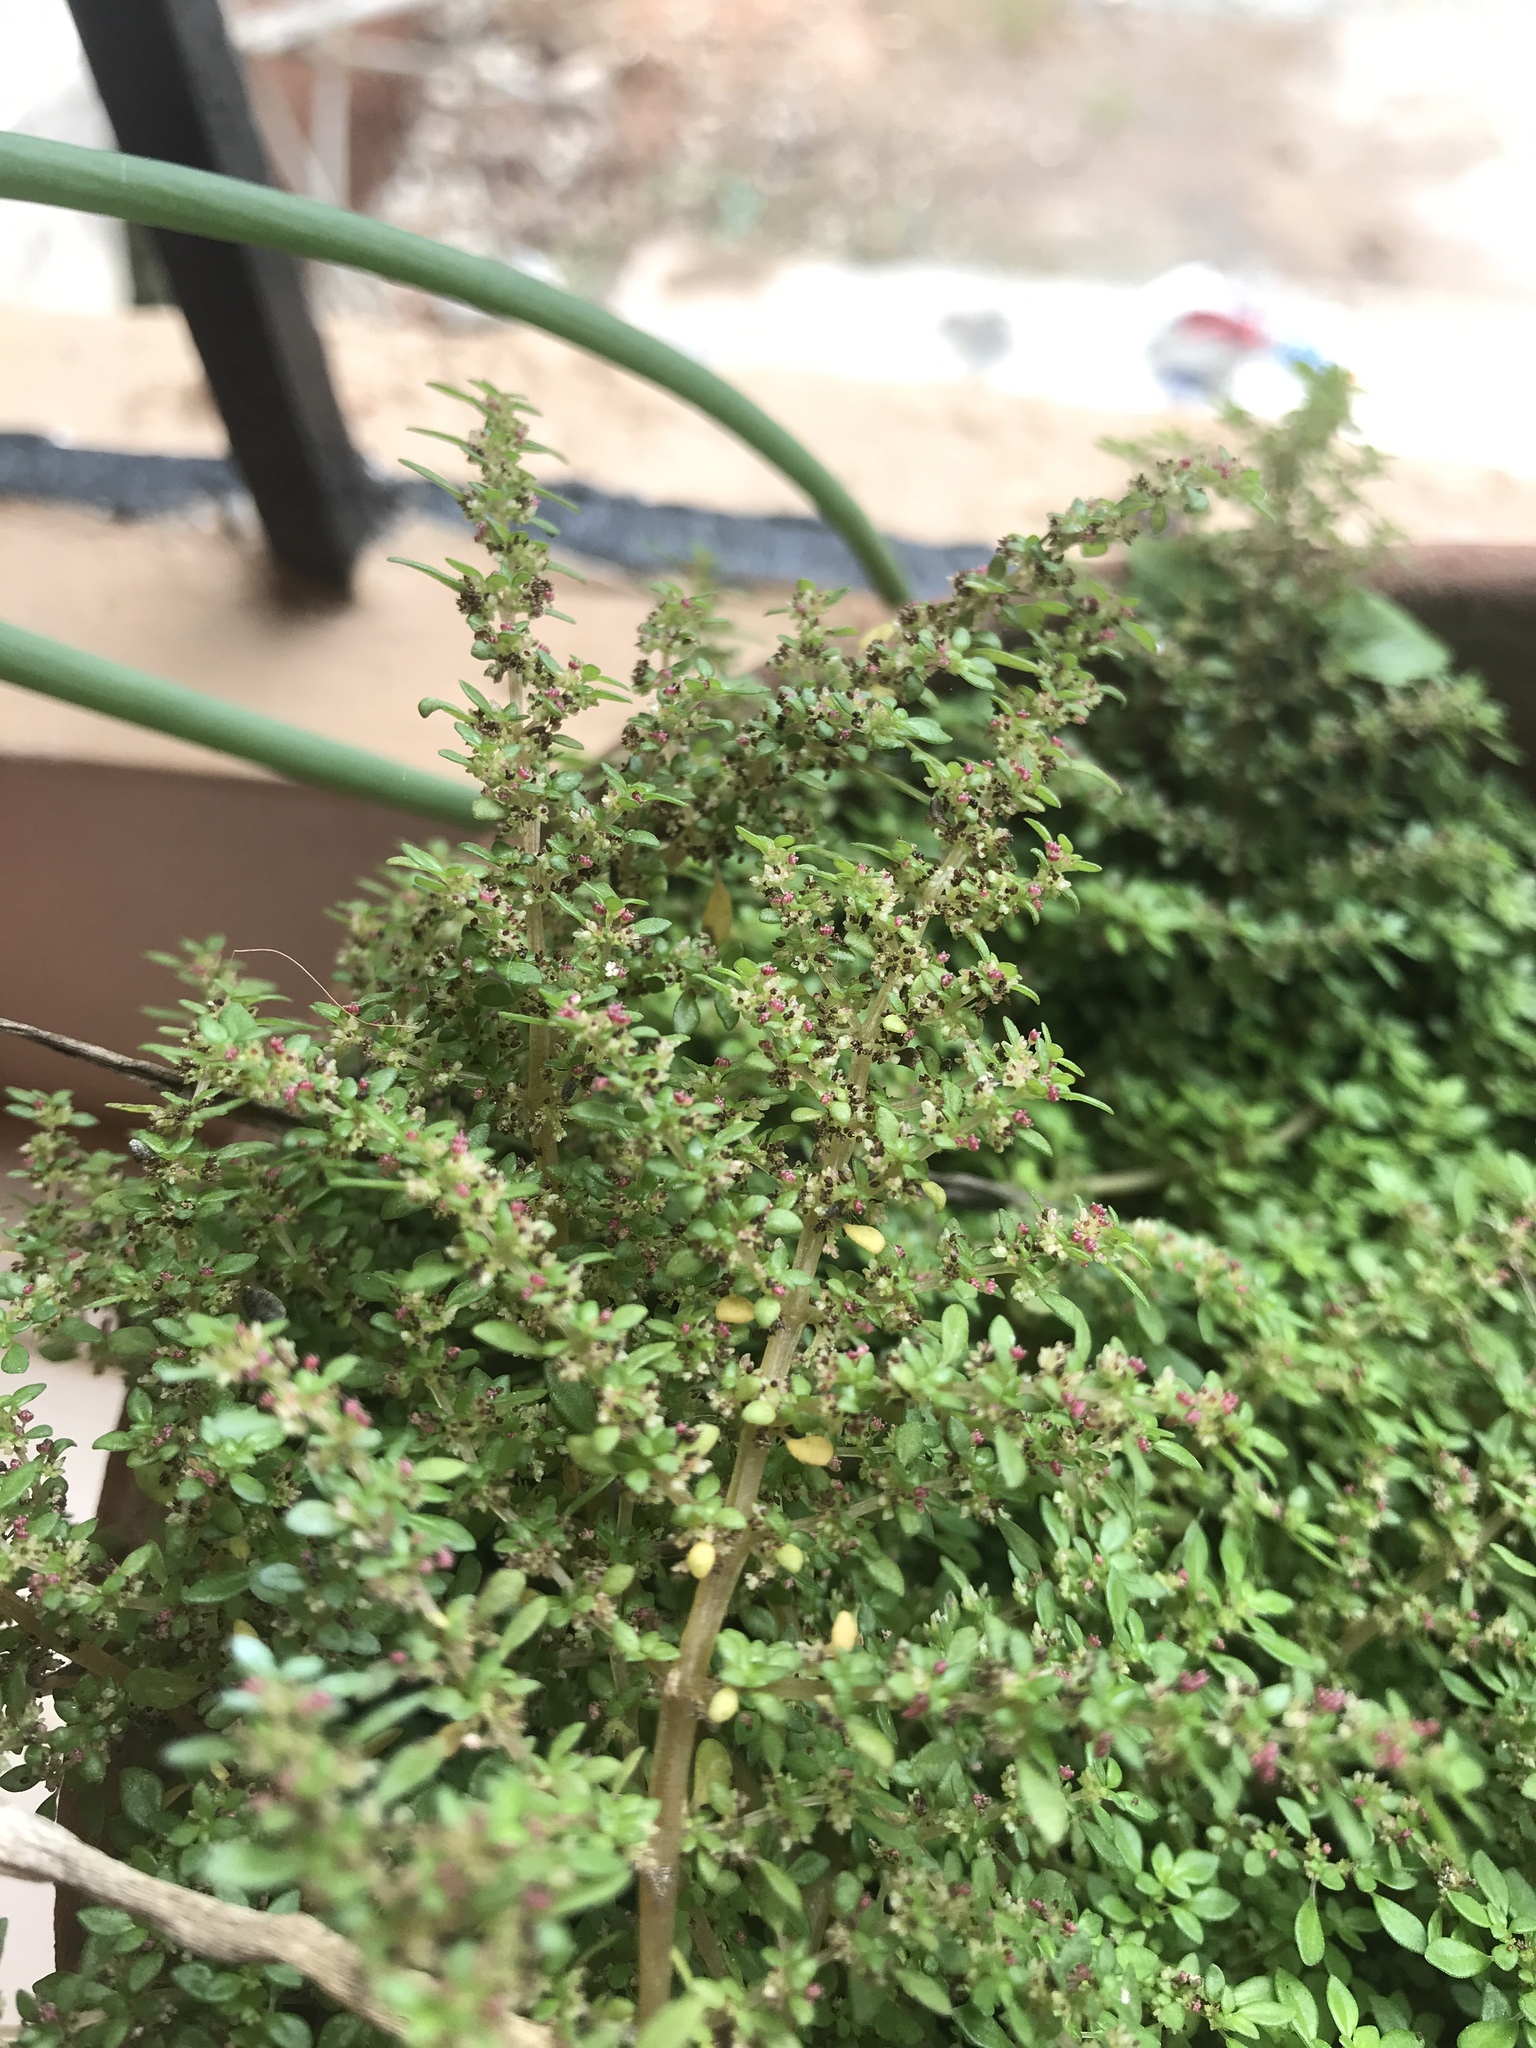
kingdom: Plantae
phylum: Tracheophyta
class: Magnoliopsida
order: Rosales
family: Urticaceae
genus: Pilea
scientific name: Pilea microphylla
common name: Artillery-plant
